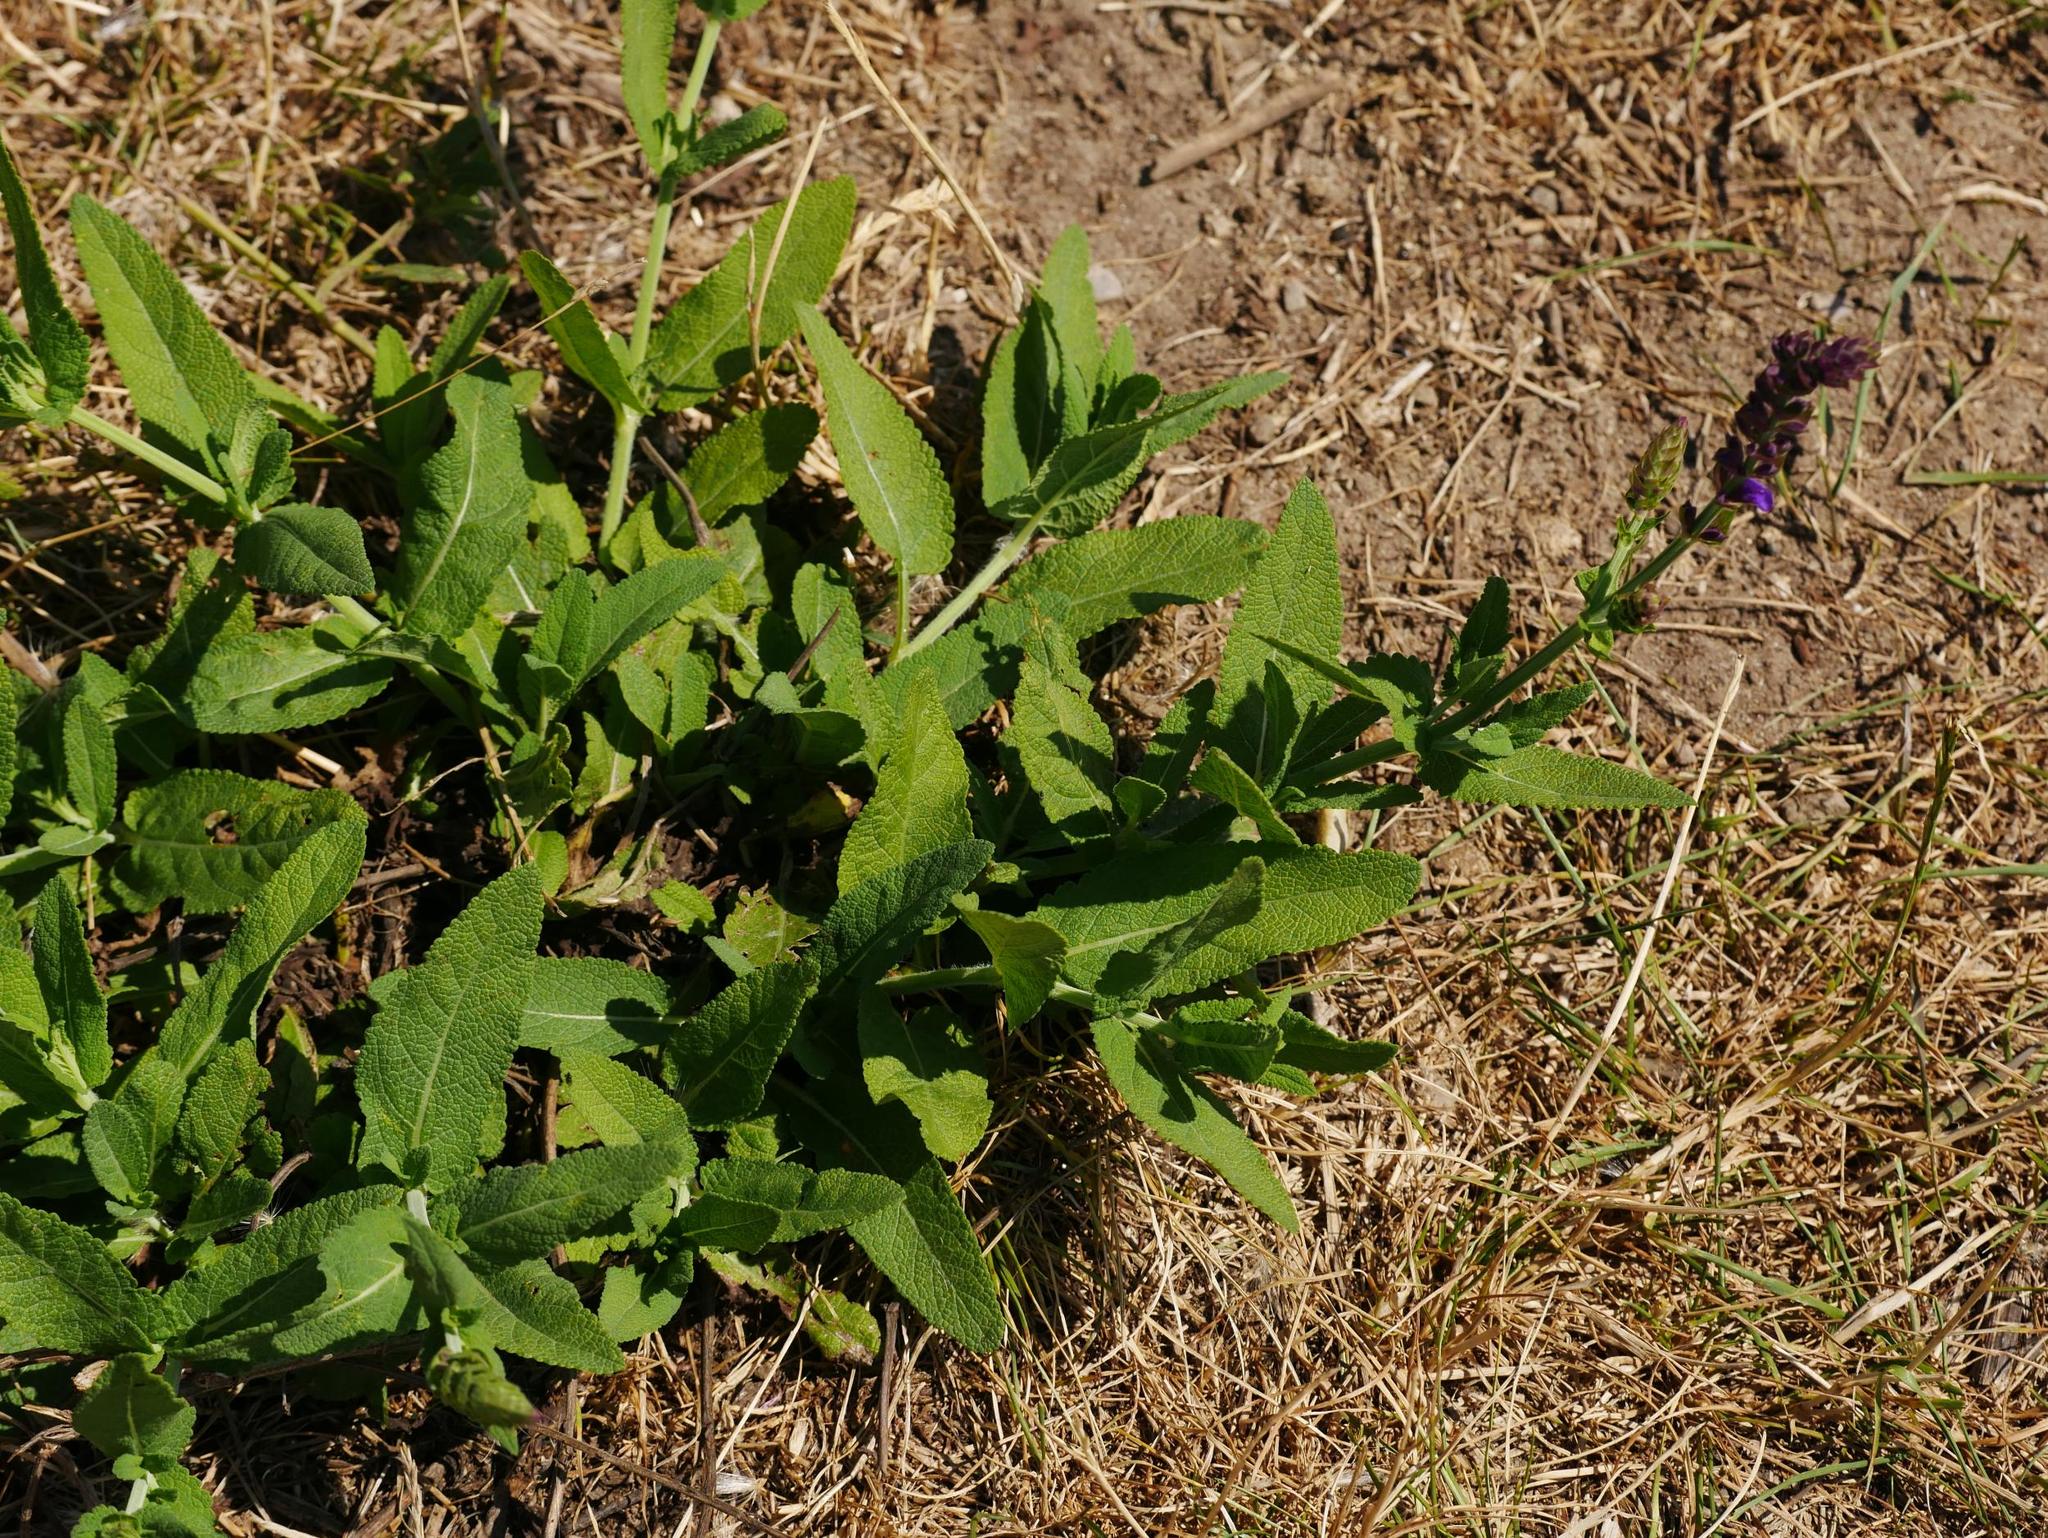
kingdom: Plantae
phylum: Tracheophyta
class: Magnoliopsida
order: Lamiales
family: Lamiaceae
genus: Salvia
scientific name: Salvia nemorosa
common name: Balkan clary
